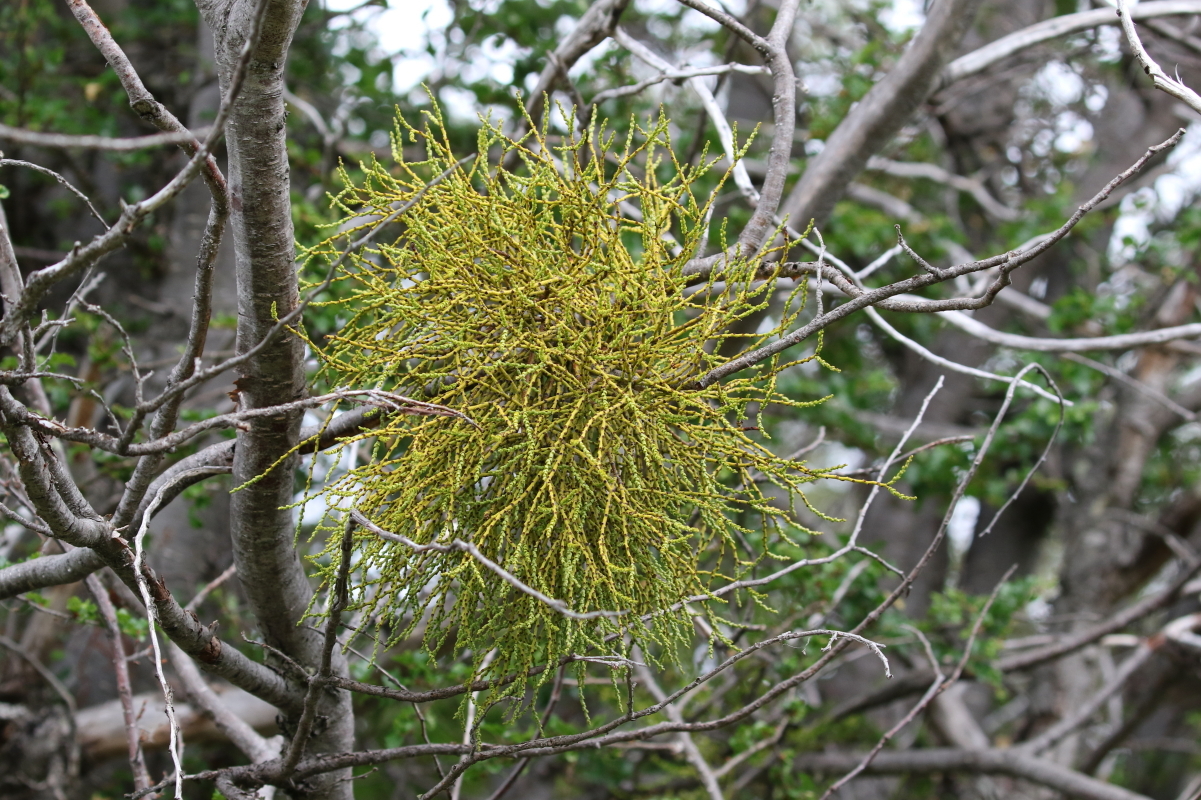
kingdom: Plantae
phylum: Tracheophyta
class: Magnoliopsida
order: Santalales
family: Misodendraceae
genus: Misodendrum
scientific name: Misodendrum punctulatum
